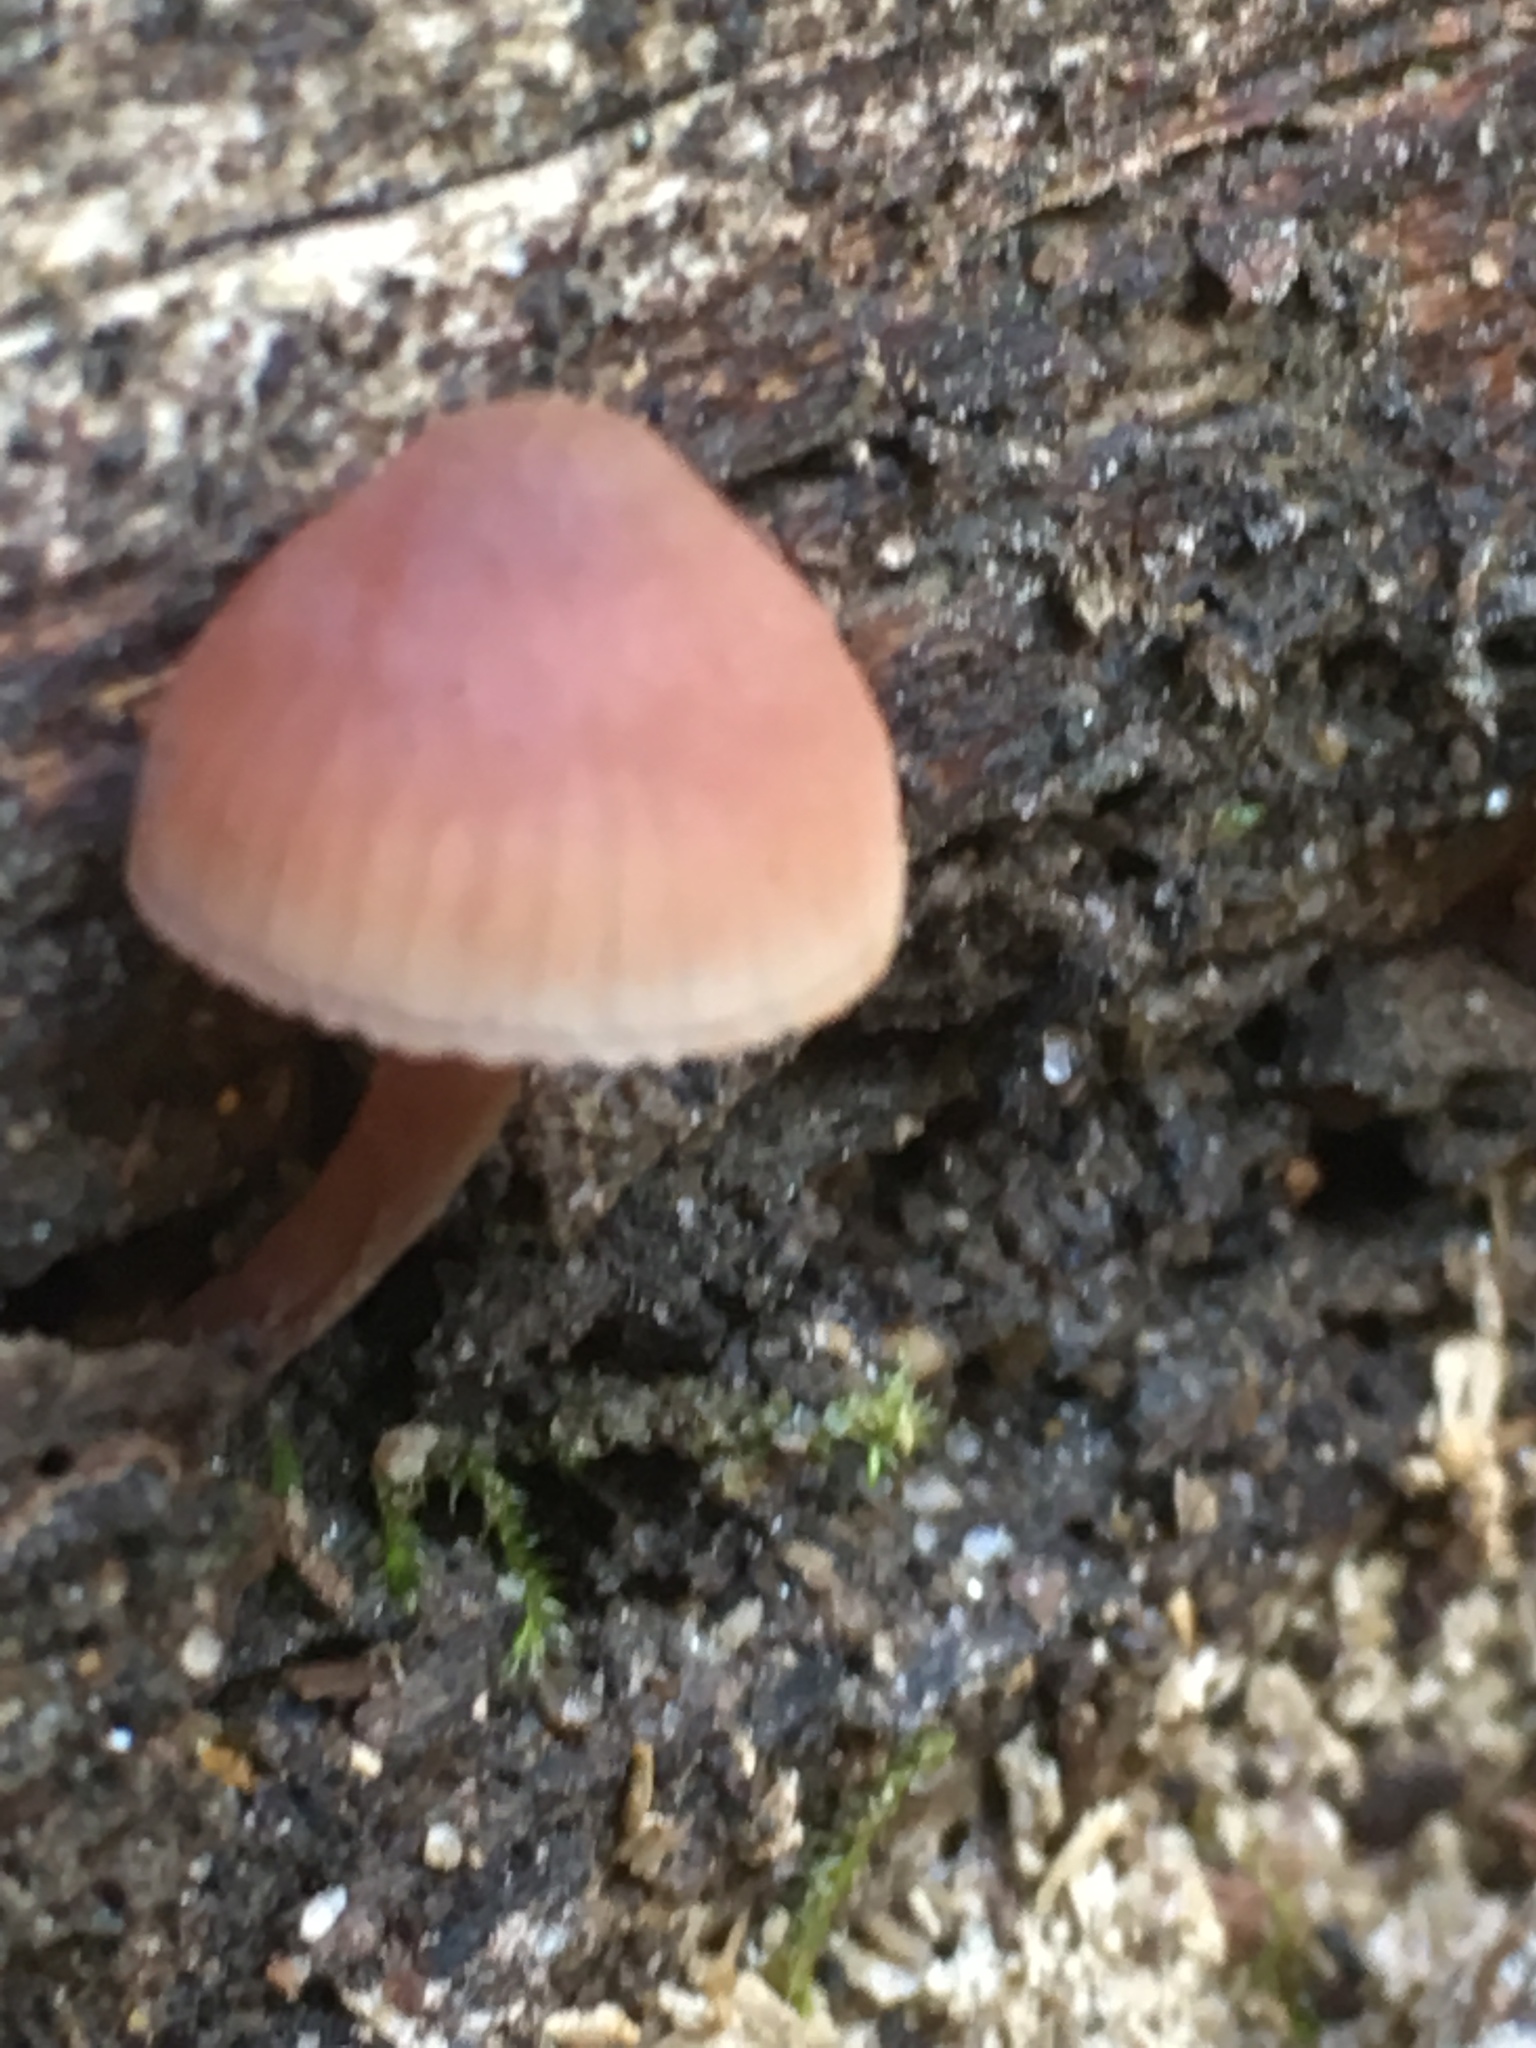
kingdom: Fungi
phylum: Basidiomycota
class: Agaricomycetes
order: Agaricales
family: Mycenaceae
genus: Mycena
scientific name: Mycena haematopus
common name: Burgundydrop bonnet
